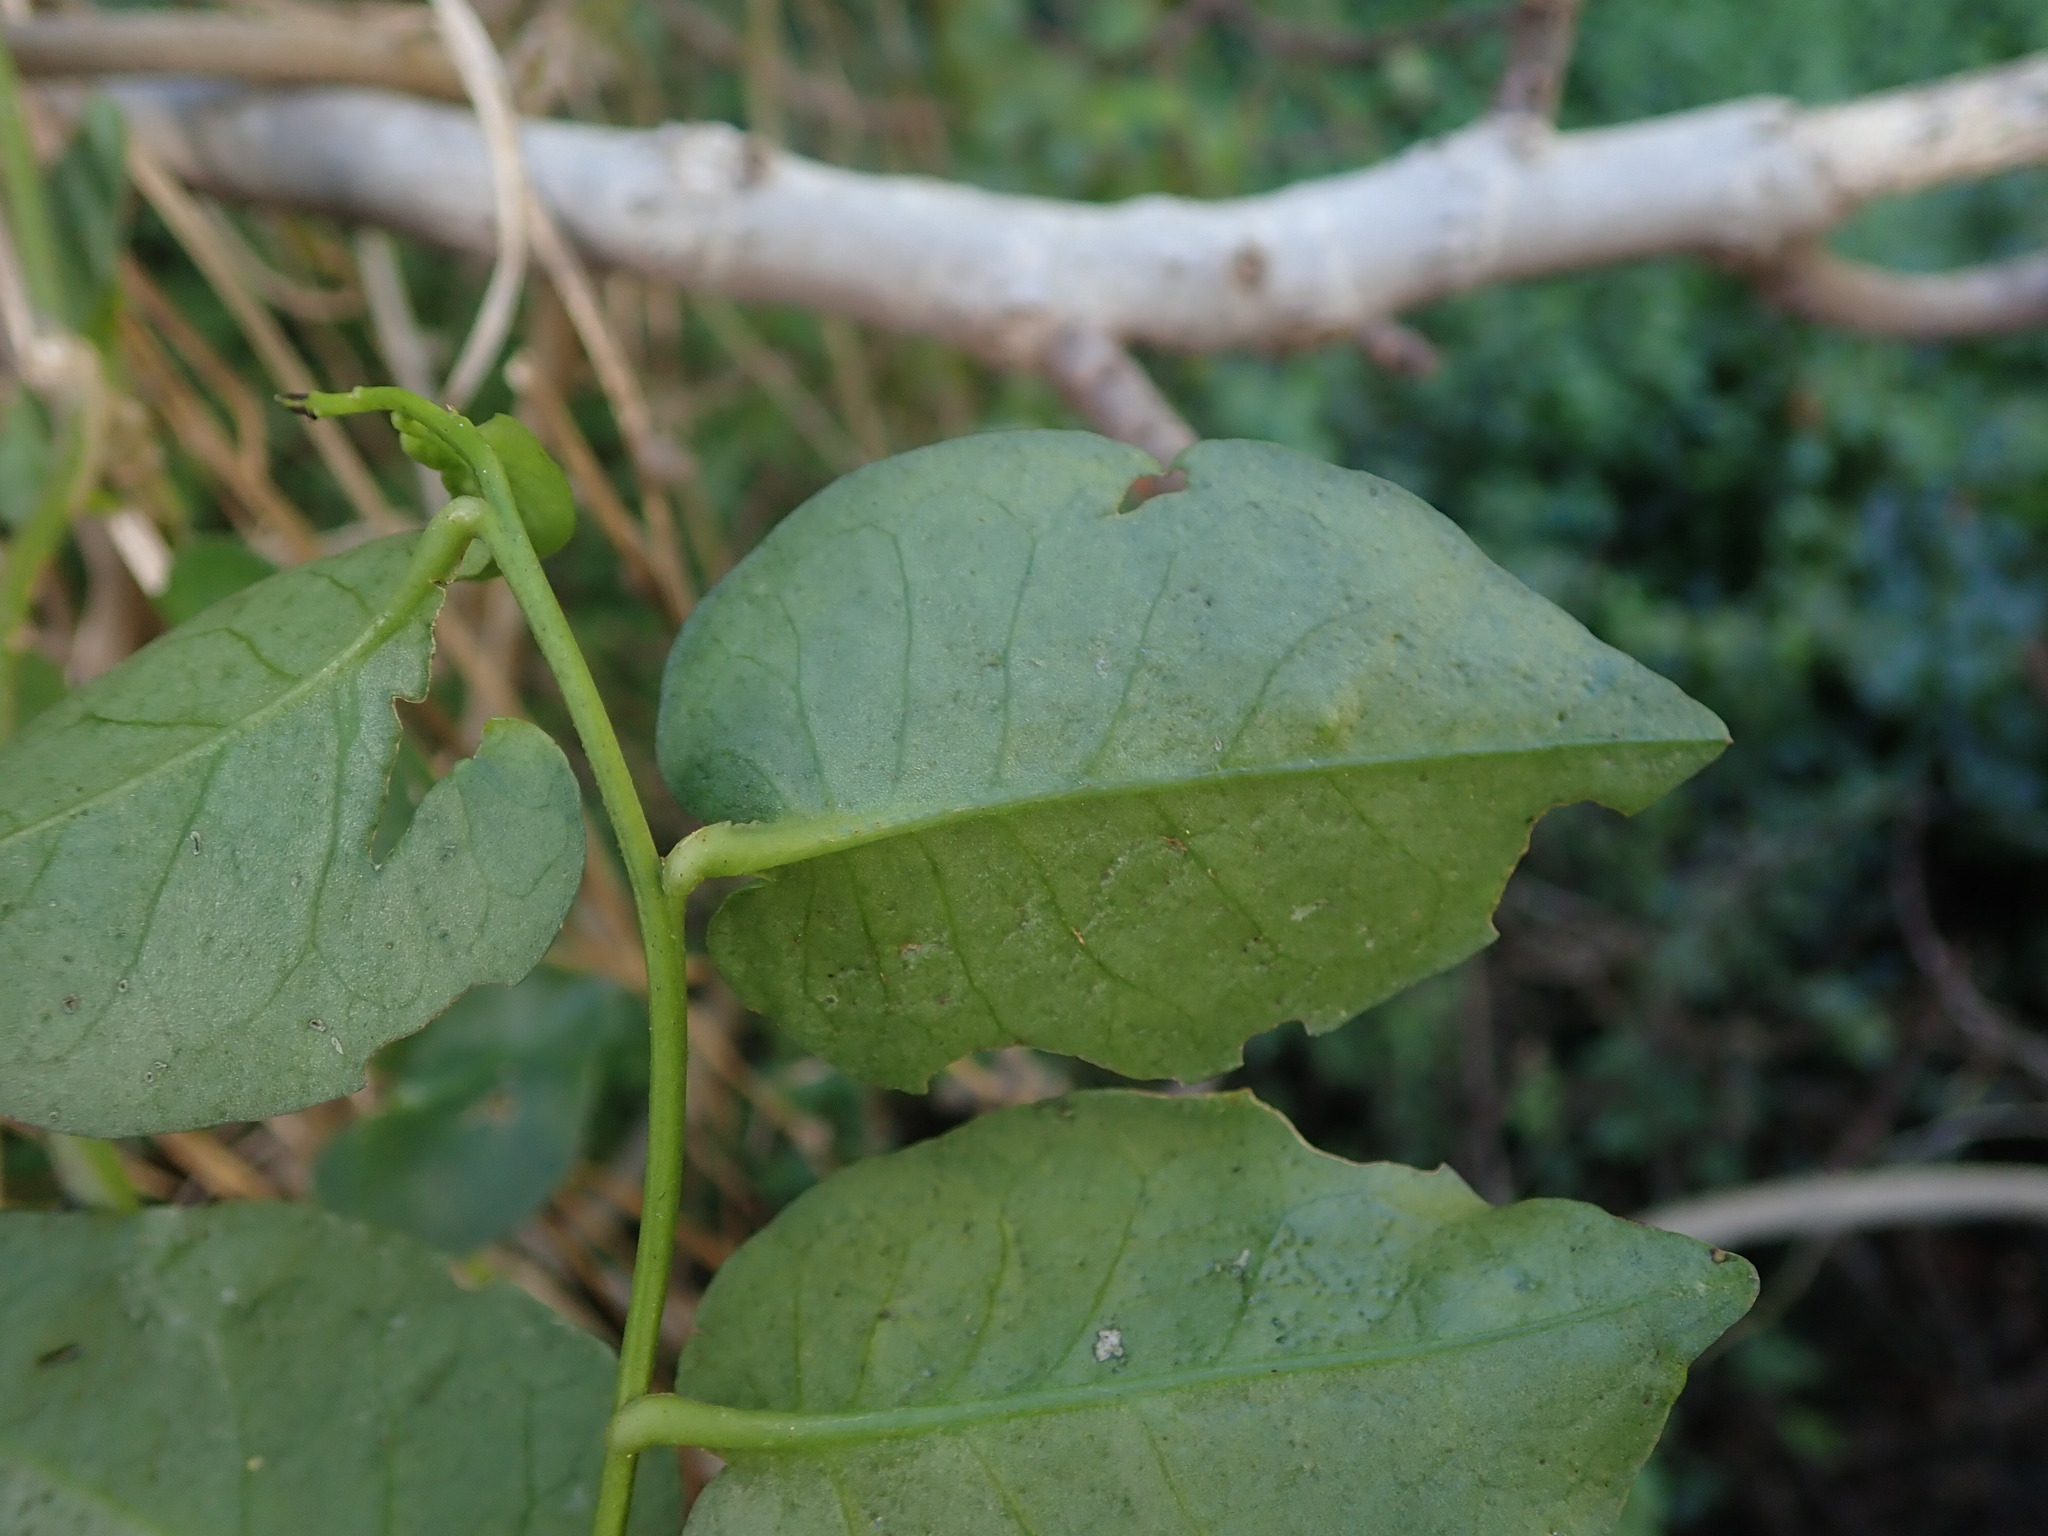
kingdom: Plantae
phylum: Tracheophyta
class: Magnoliopsida
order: Caryophyllales
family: Basellaceae
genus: Anredera
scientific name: Anredera cordifolia
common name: Heartleaf madeiravine
